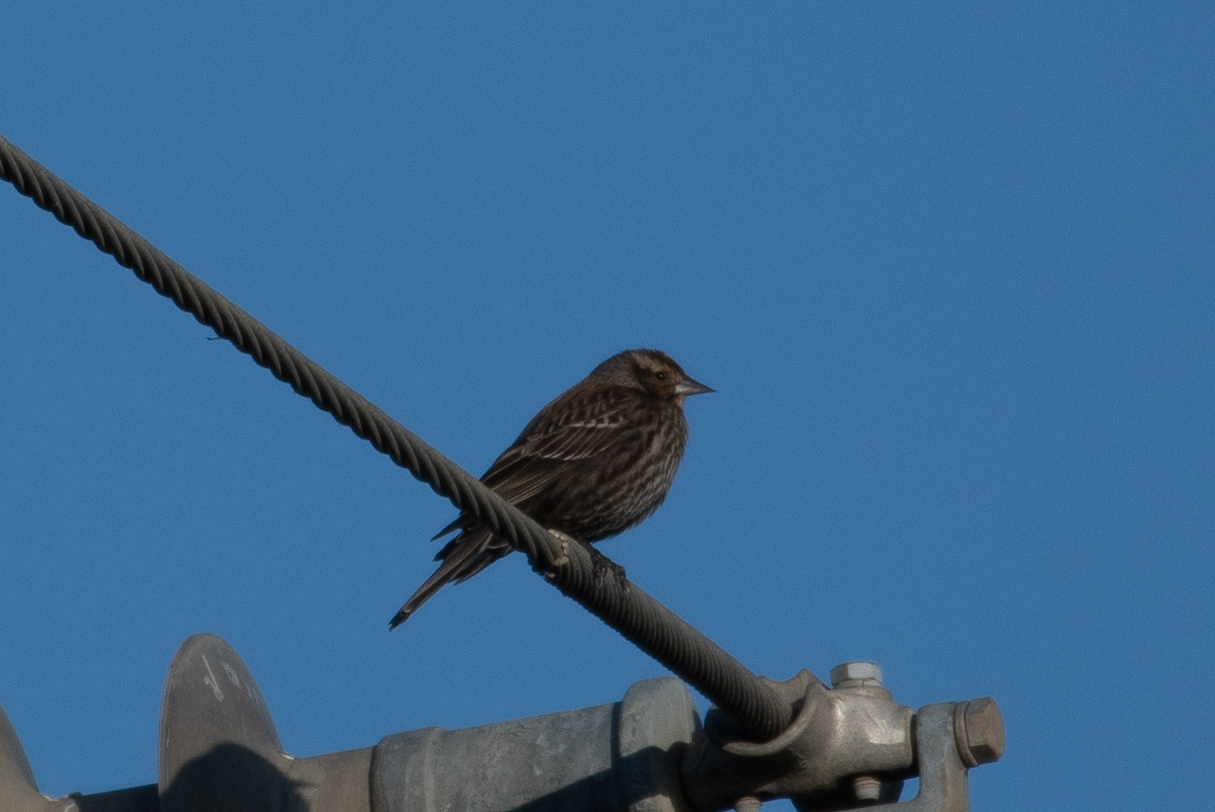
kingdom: Animalia
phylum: Chordata
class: Aves
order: Passeriformes
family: Icteridae
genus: Agelaius
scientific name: Agelaius phoeniceus
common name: Red-winged blackbird
